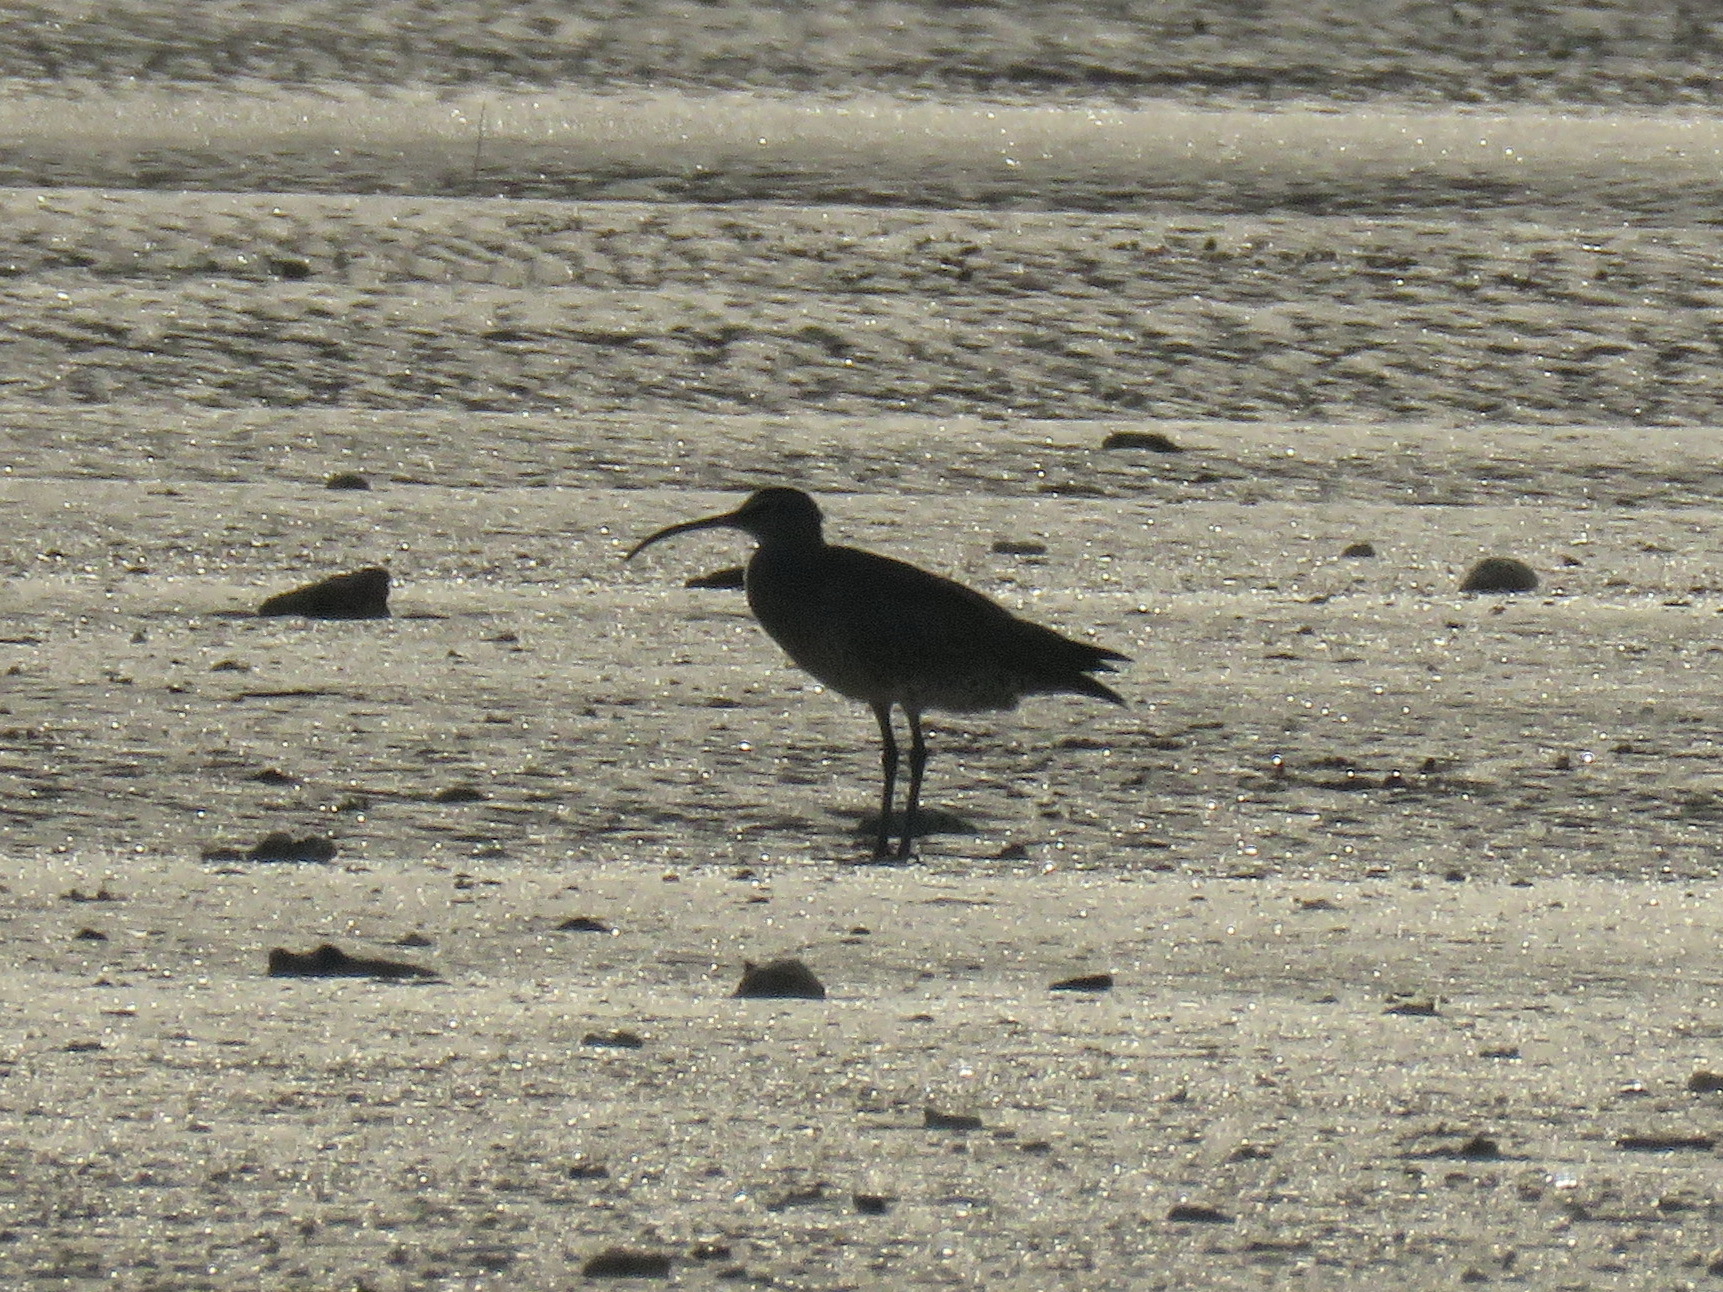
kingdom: Animalia
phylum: Chordata
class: Aves
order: Charadriiformes
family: Scolopacidae
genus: Numenius
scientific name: Numenius phaeopus
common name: Whimbrel
